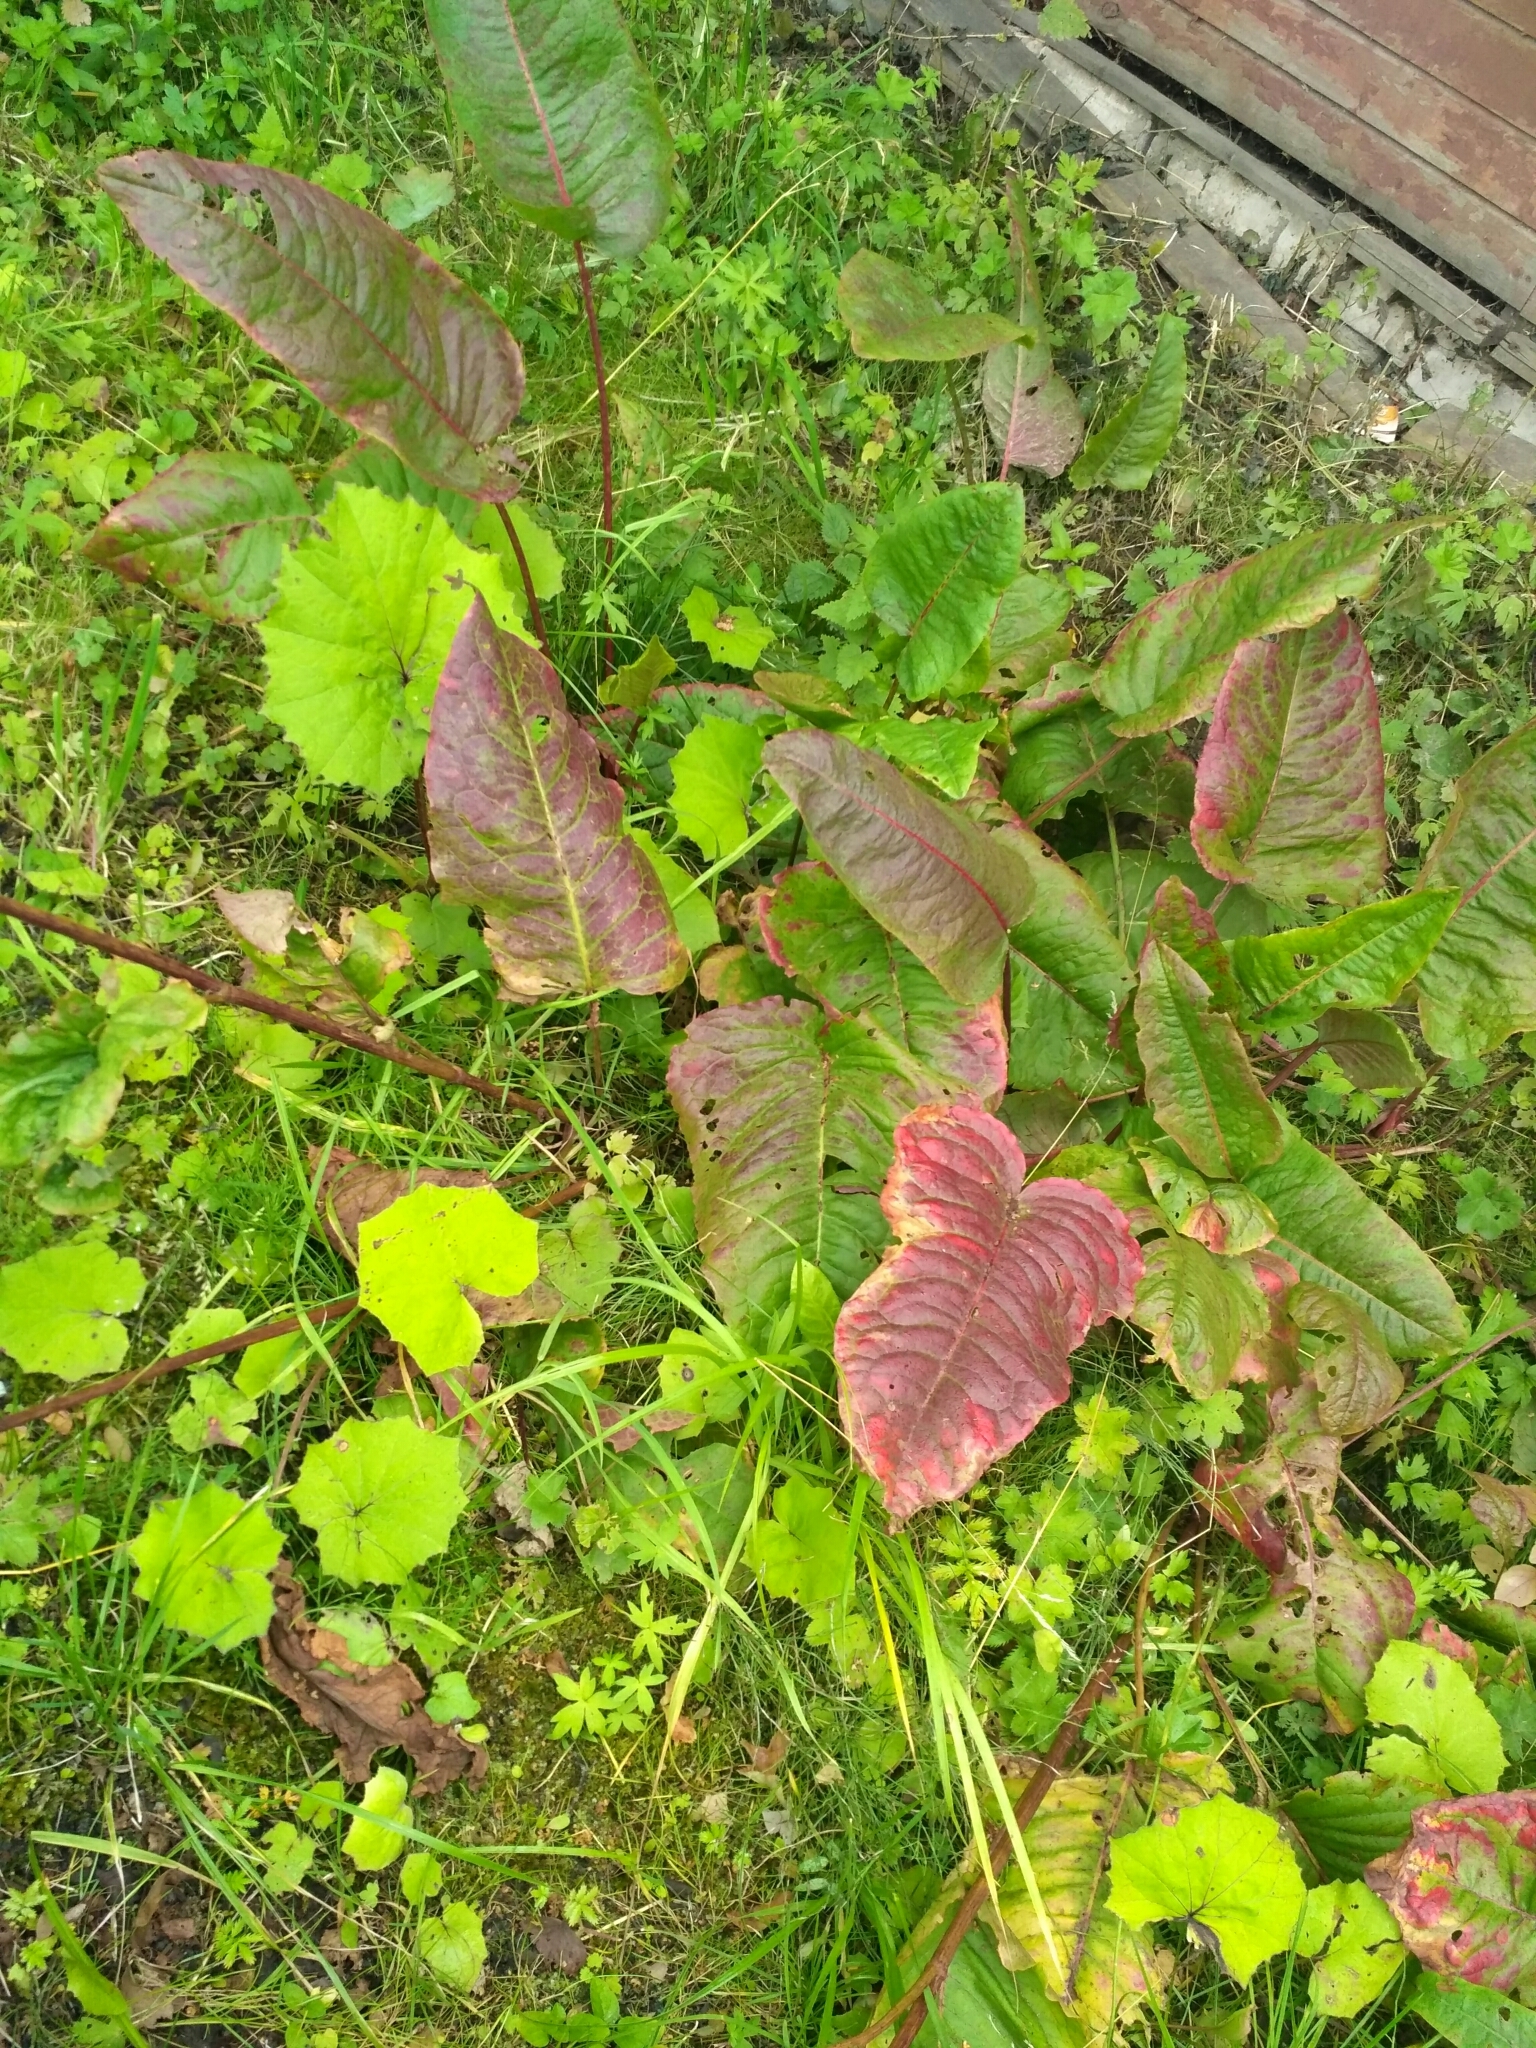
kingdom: Plantae
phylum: Tracheophyta
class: Magnoliopsida
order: Caryophyllales
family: Polygonaceae
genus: Rumex
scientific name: Rumex aquaticus
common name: Scottish dock
